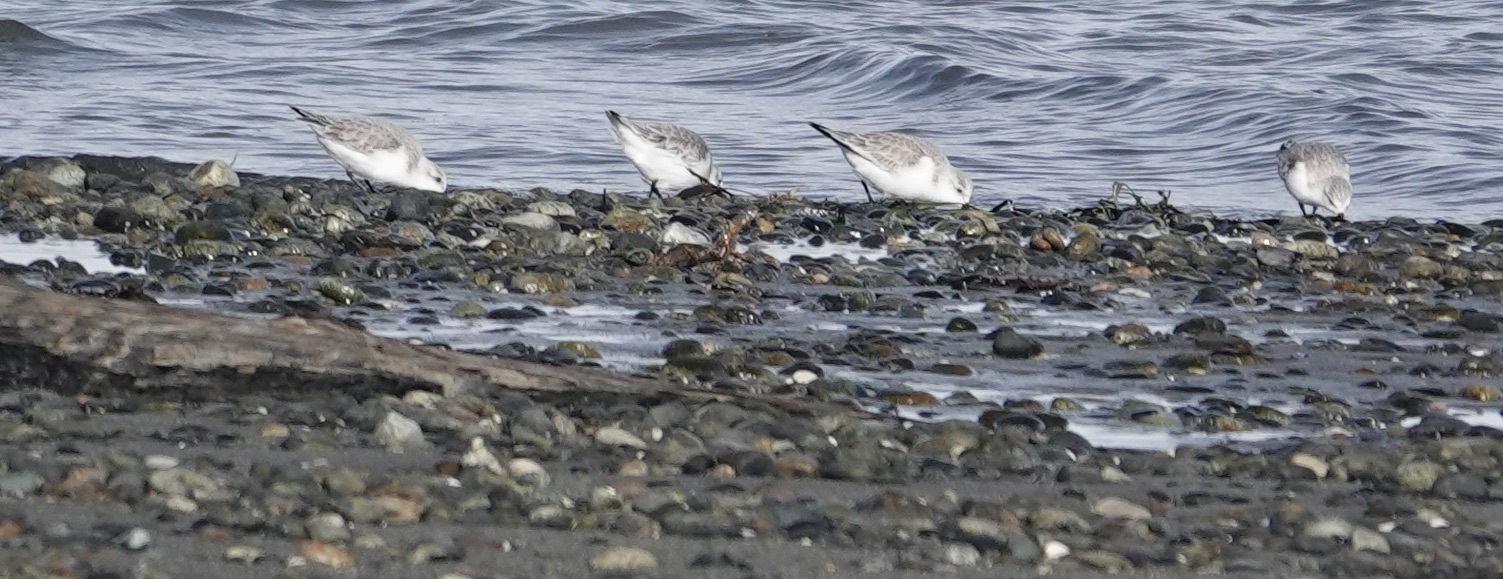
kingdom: Animalia
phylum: Chordata
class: Aves
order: Charadriiformes
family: Scolopacidae
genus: Calidris
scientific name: Calidris alba
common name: Sanderling
